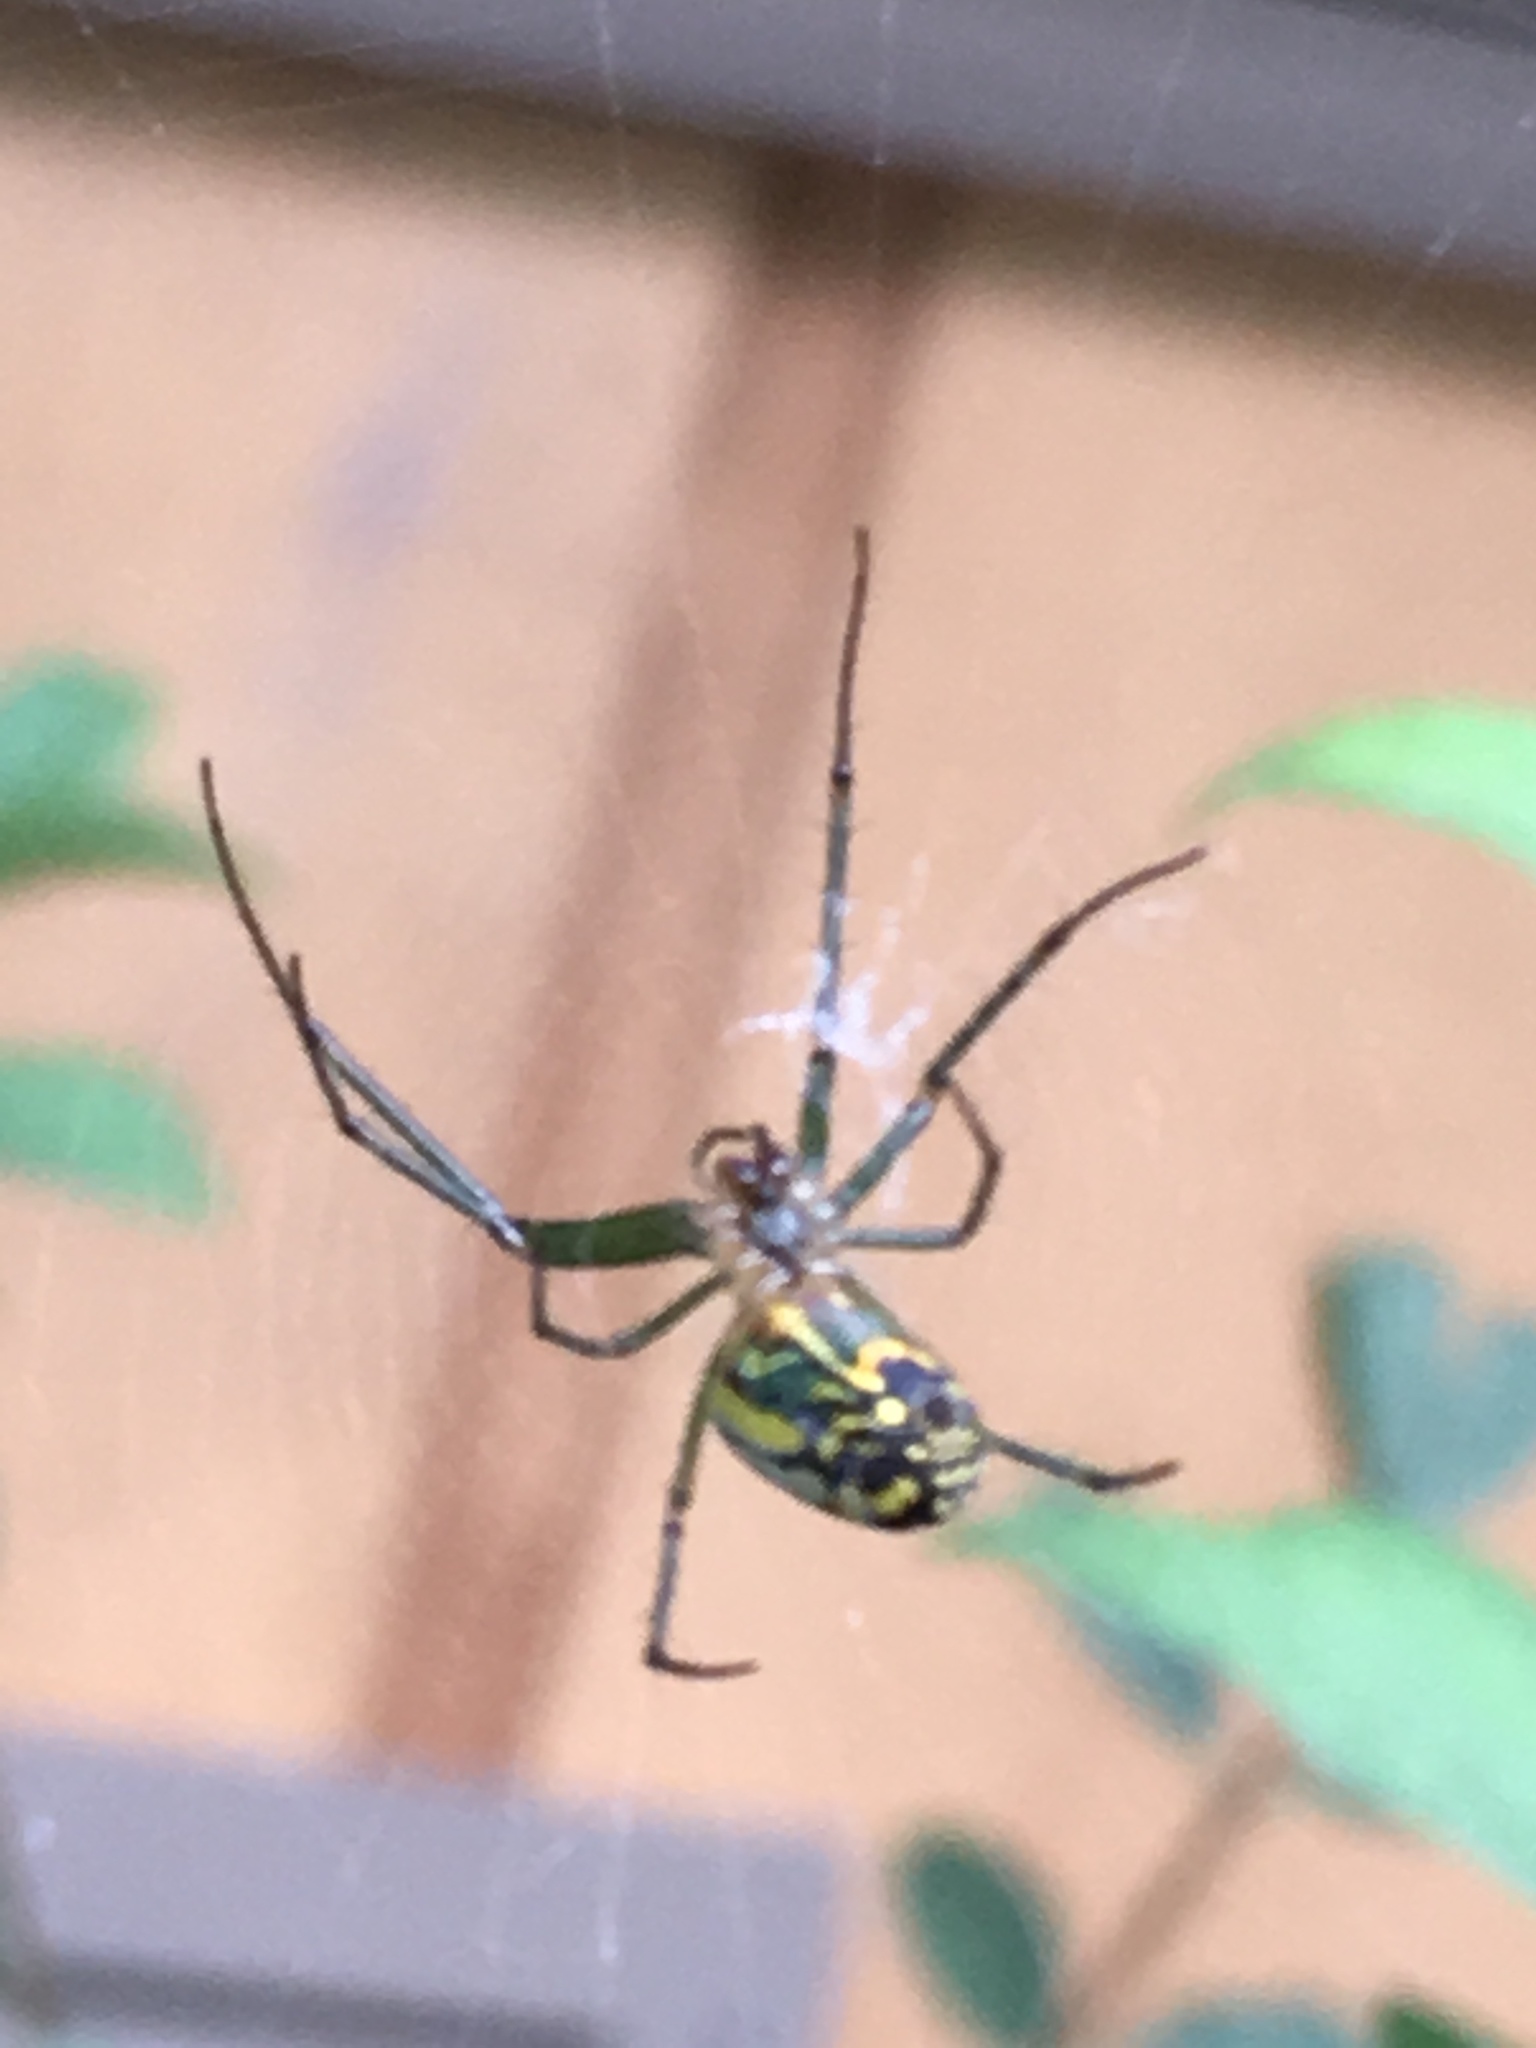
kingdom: Animalia
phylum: Arthropoda
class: Arachnida
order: Araneae
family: Tetragnathidae
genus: Leucauge
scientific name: Leucauge venusta
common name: Longjawed orb weavers
